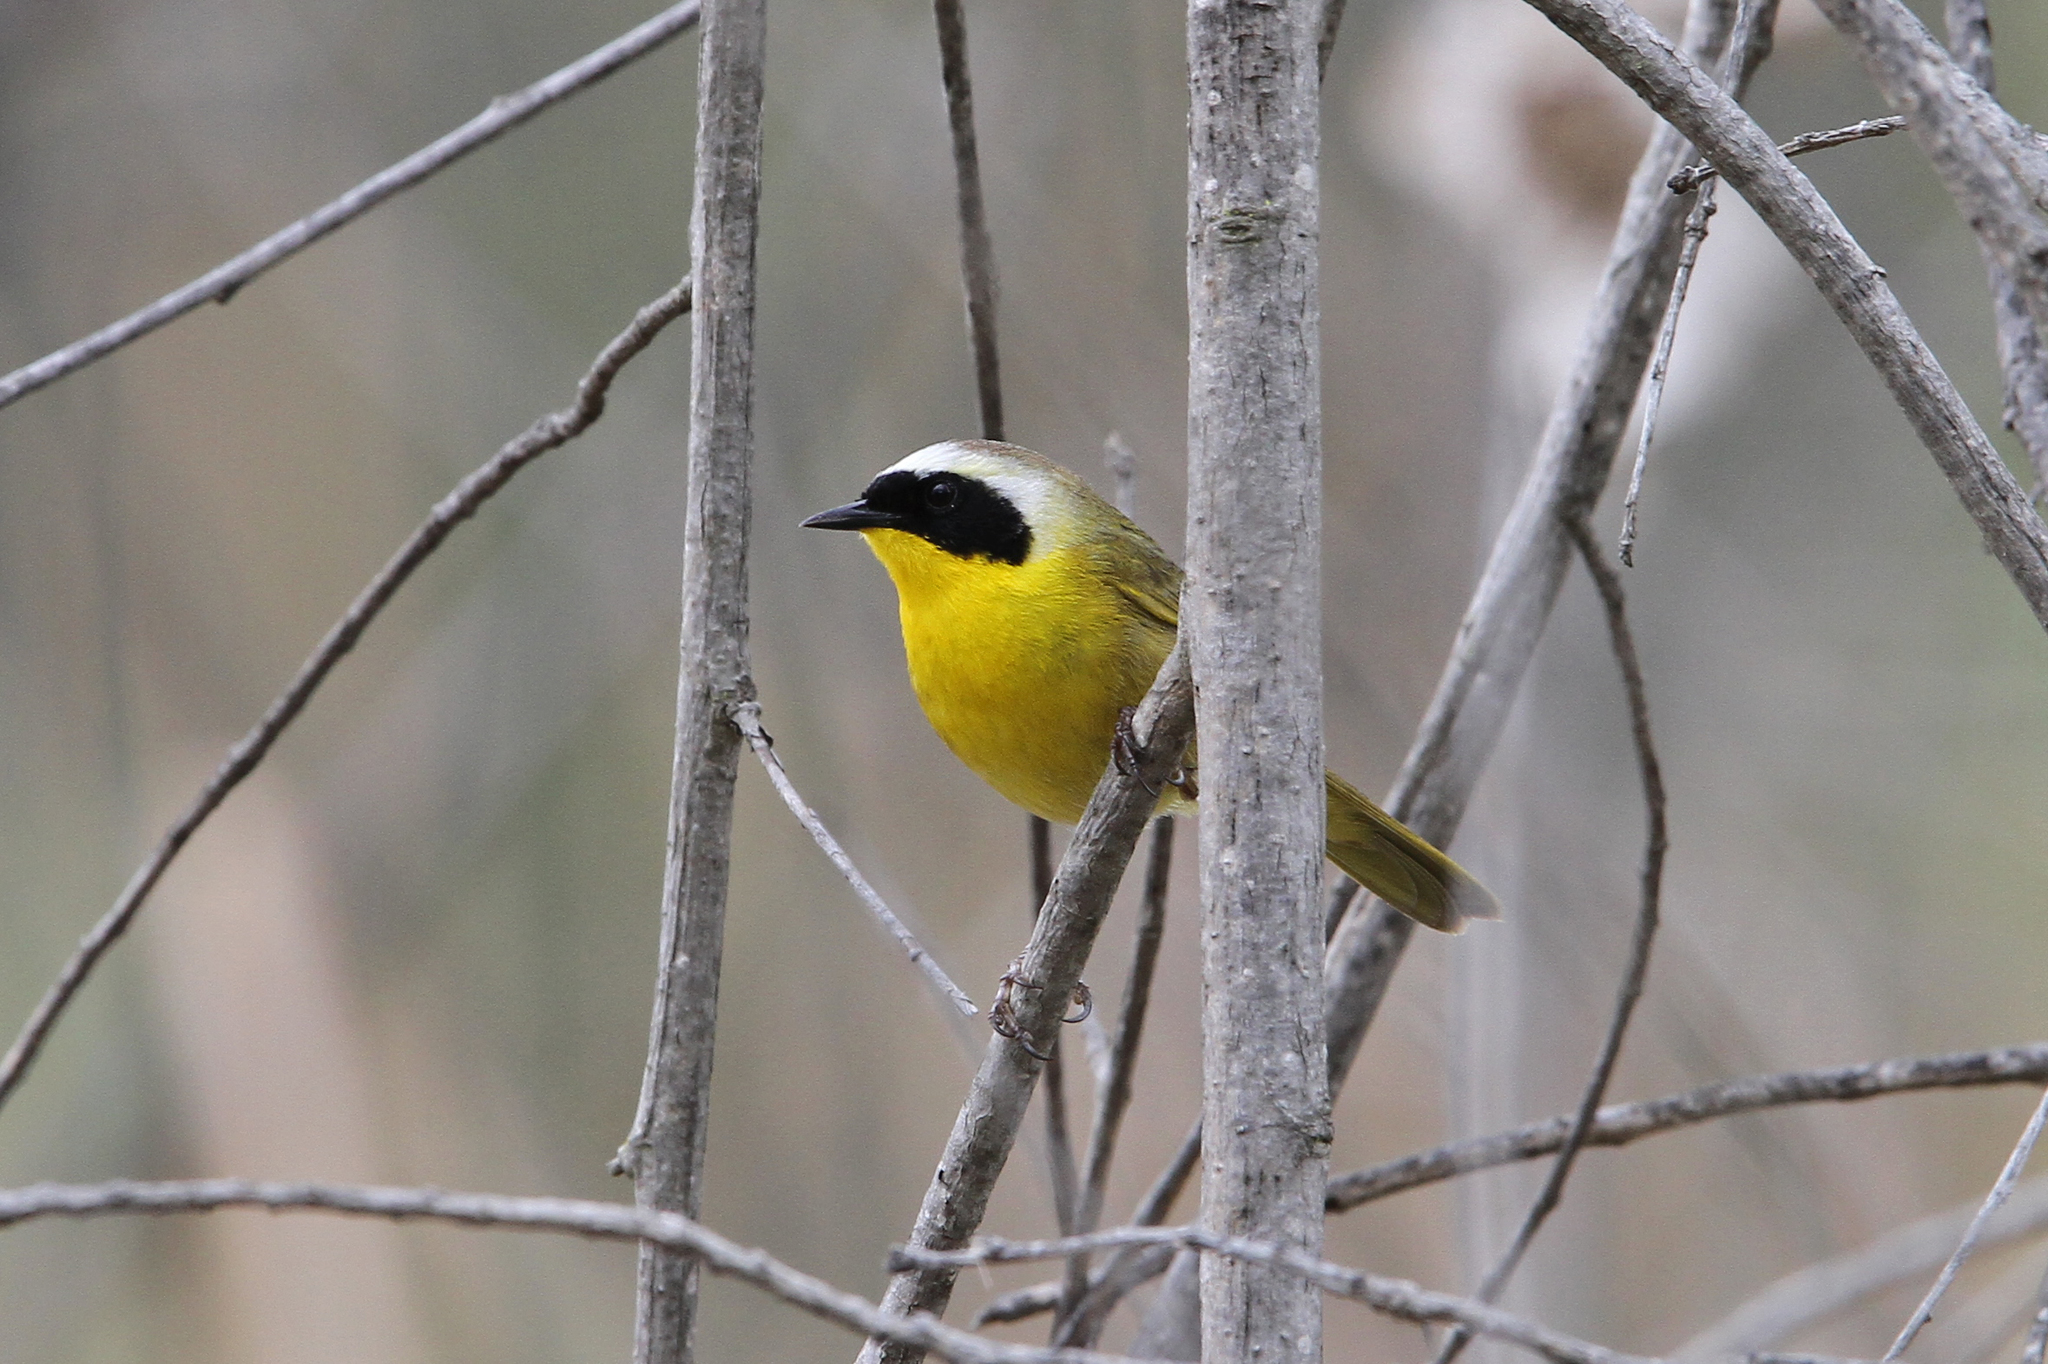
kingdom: Animalia
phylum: Chordata
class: Aves
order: Passeriformes
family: Parulidae
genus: Geothlypis
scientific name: Geothlypis trichas
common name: Common yellowthroat
